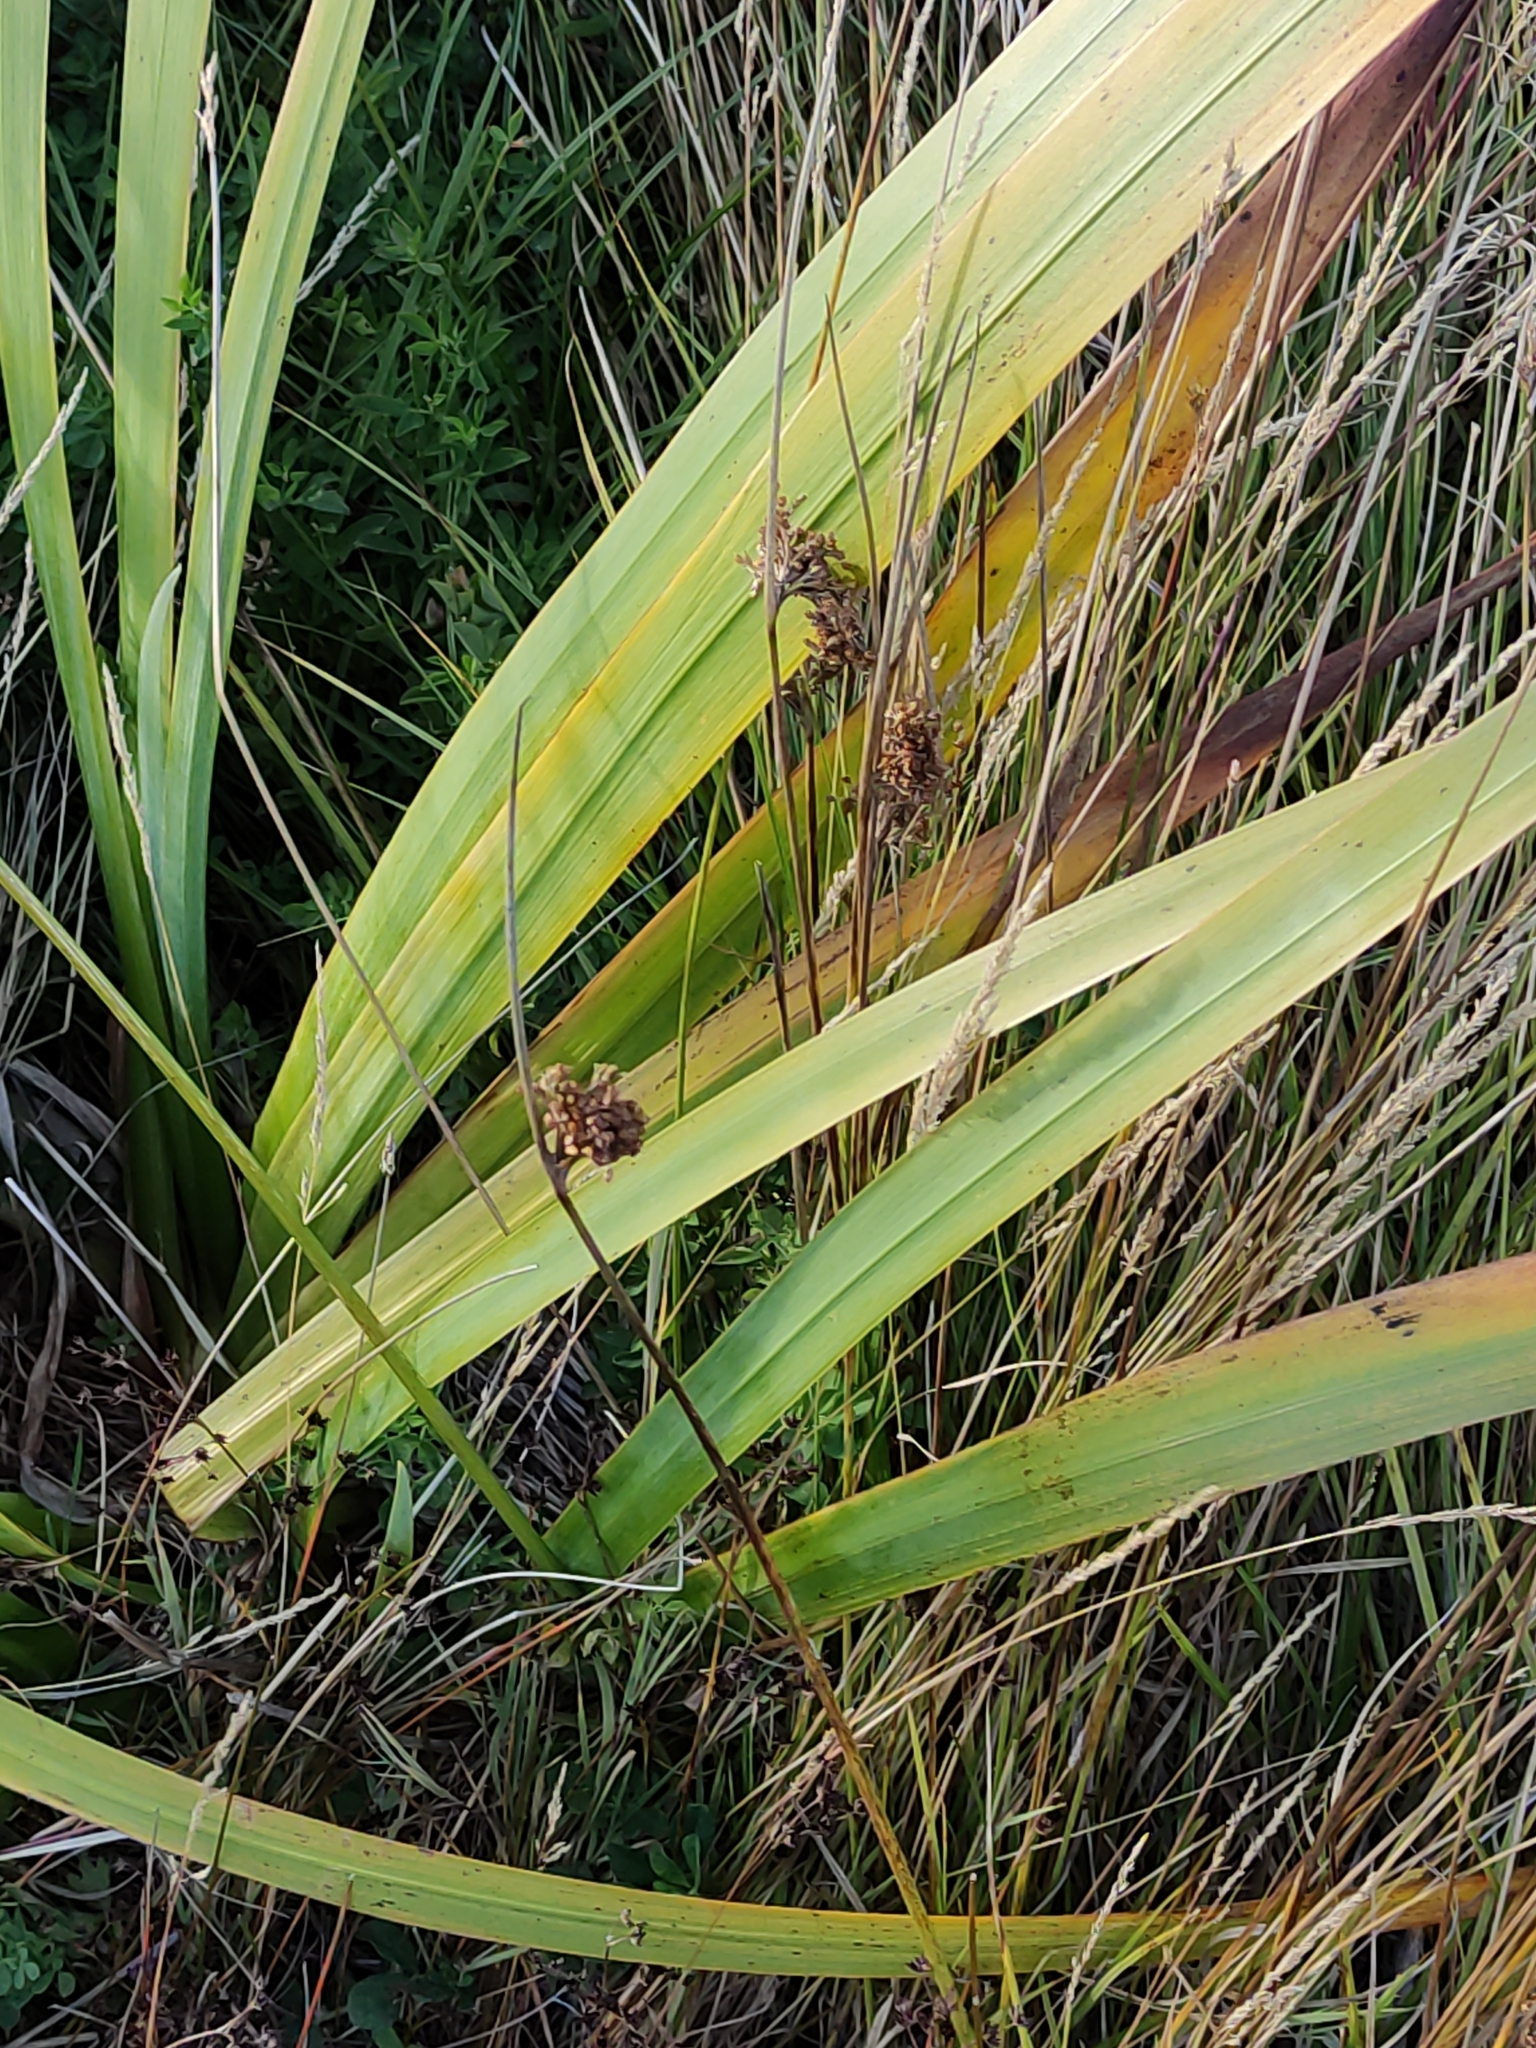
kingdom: Plantae
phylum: Tracheophyta
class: Liliopsida
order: Asparagales
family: Iridaceae
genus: Iris
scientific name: Iris pseudacorus
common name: Yellow flag
